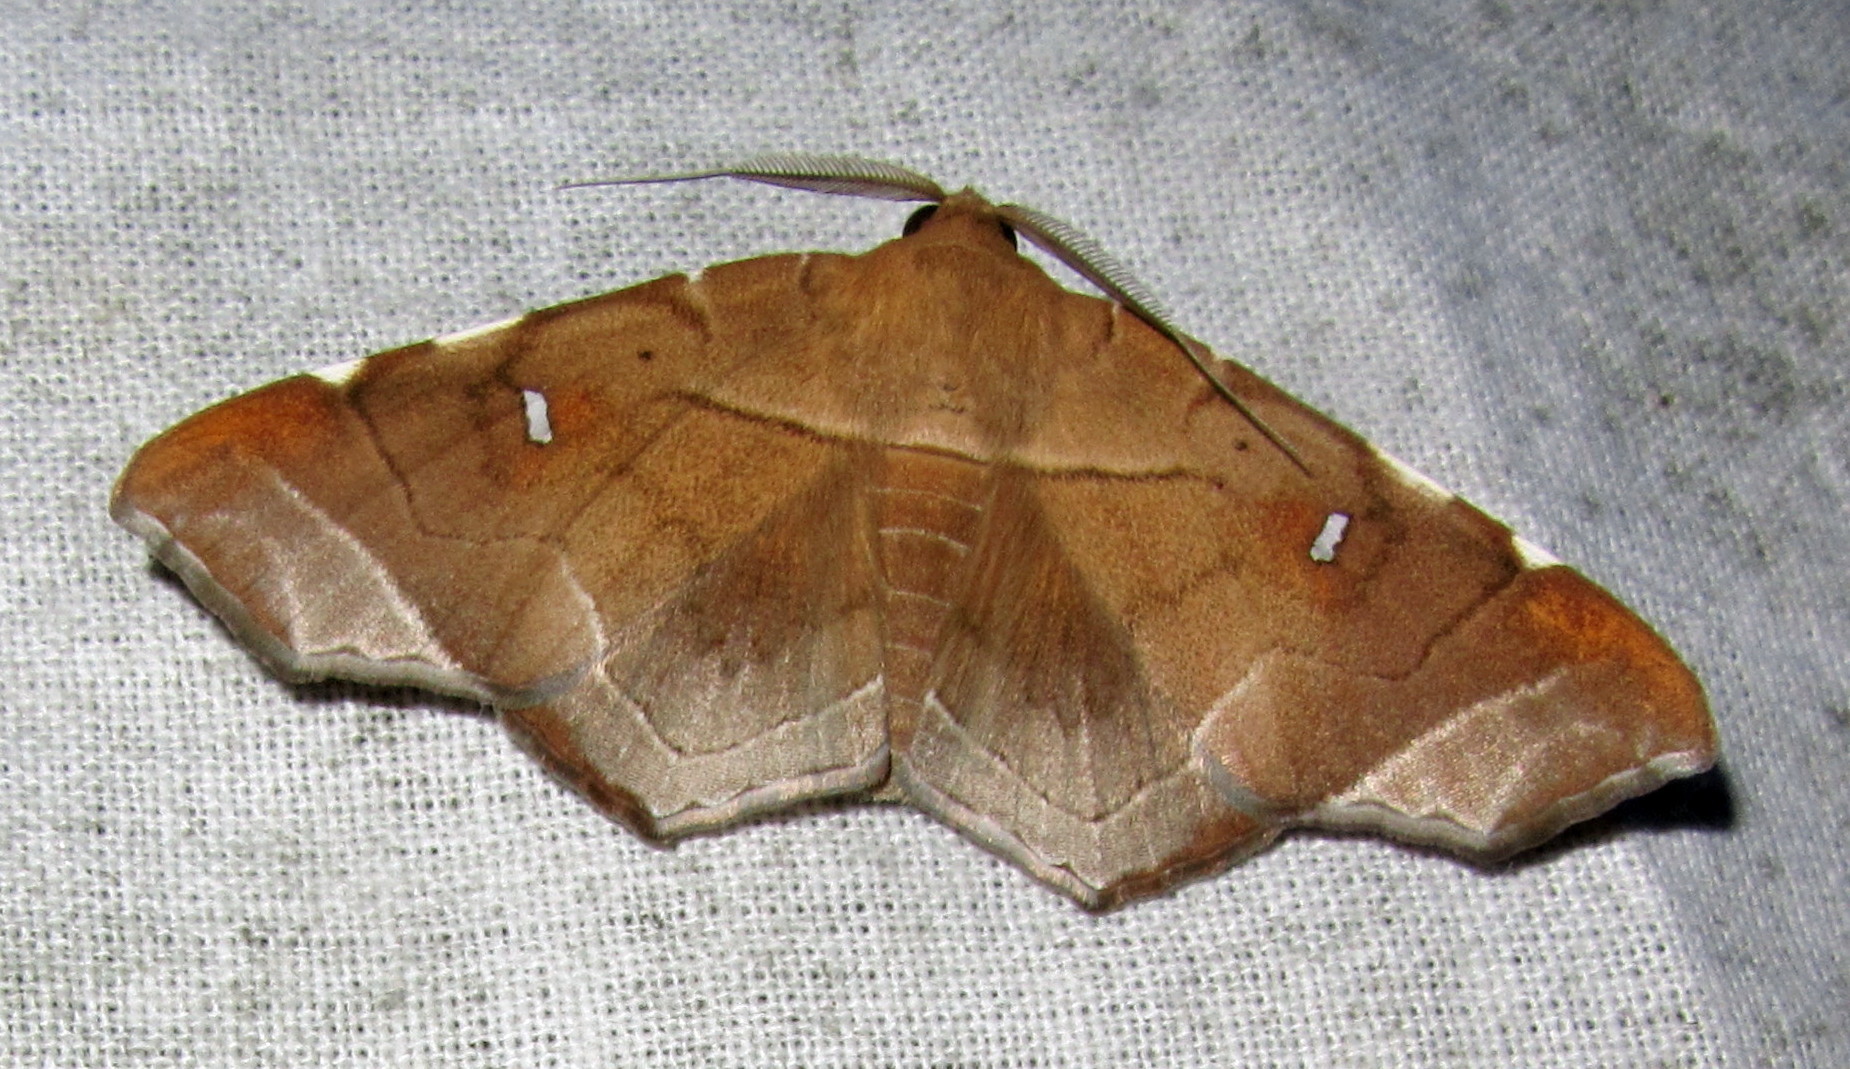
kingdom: Animalia
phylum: Arthropoda
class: Insecta
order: Lepidoptera
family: Erebidae
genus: Episparis
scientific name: Episparis exprimens
